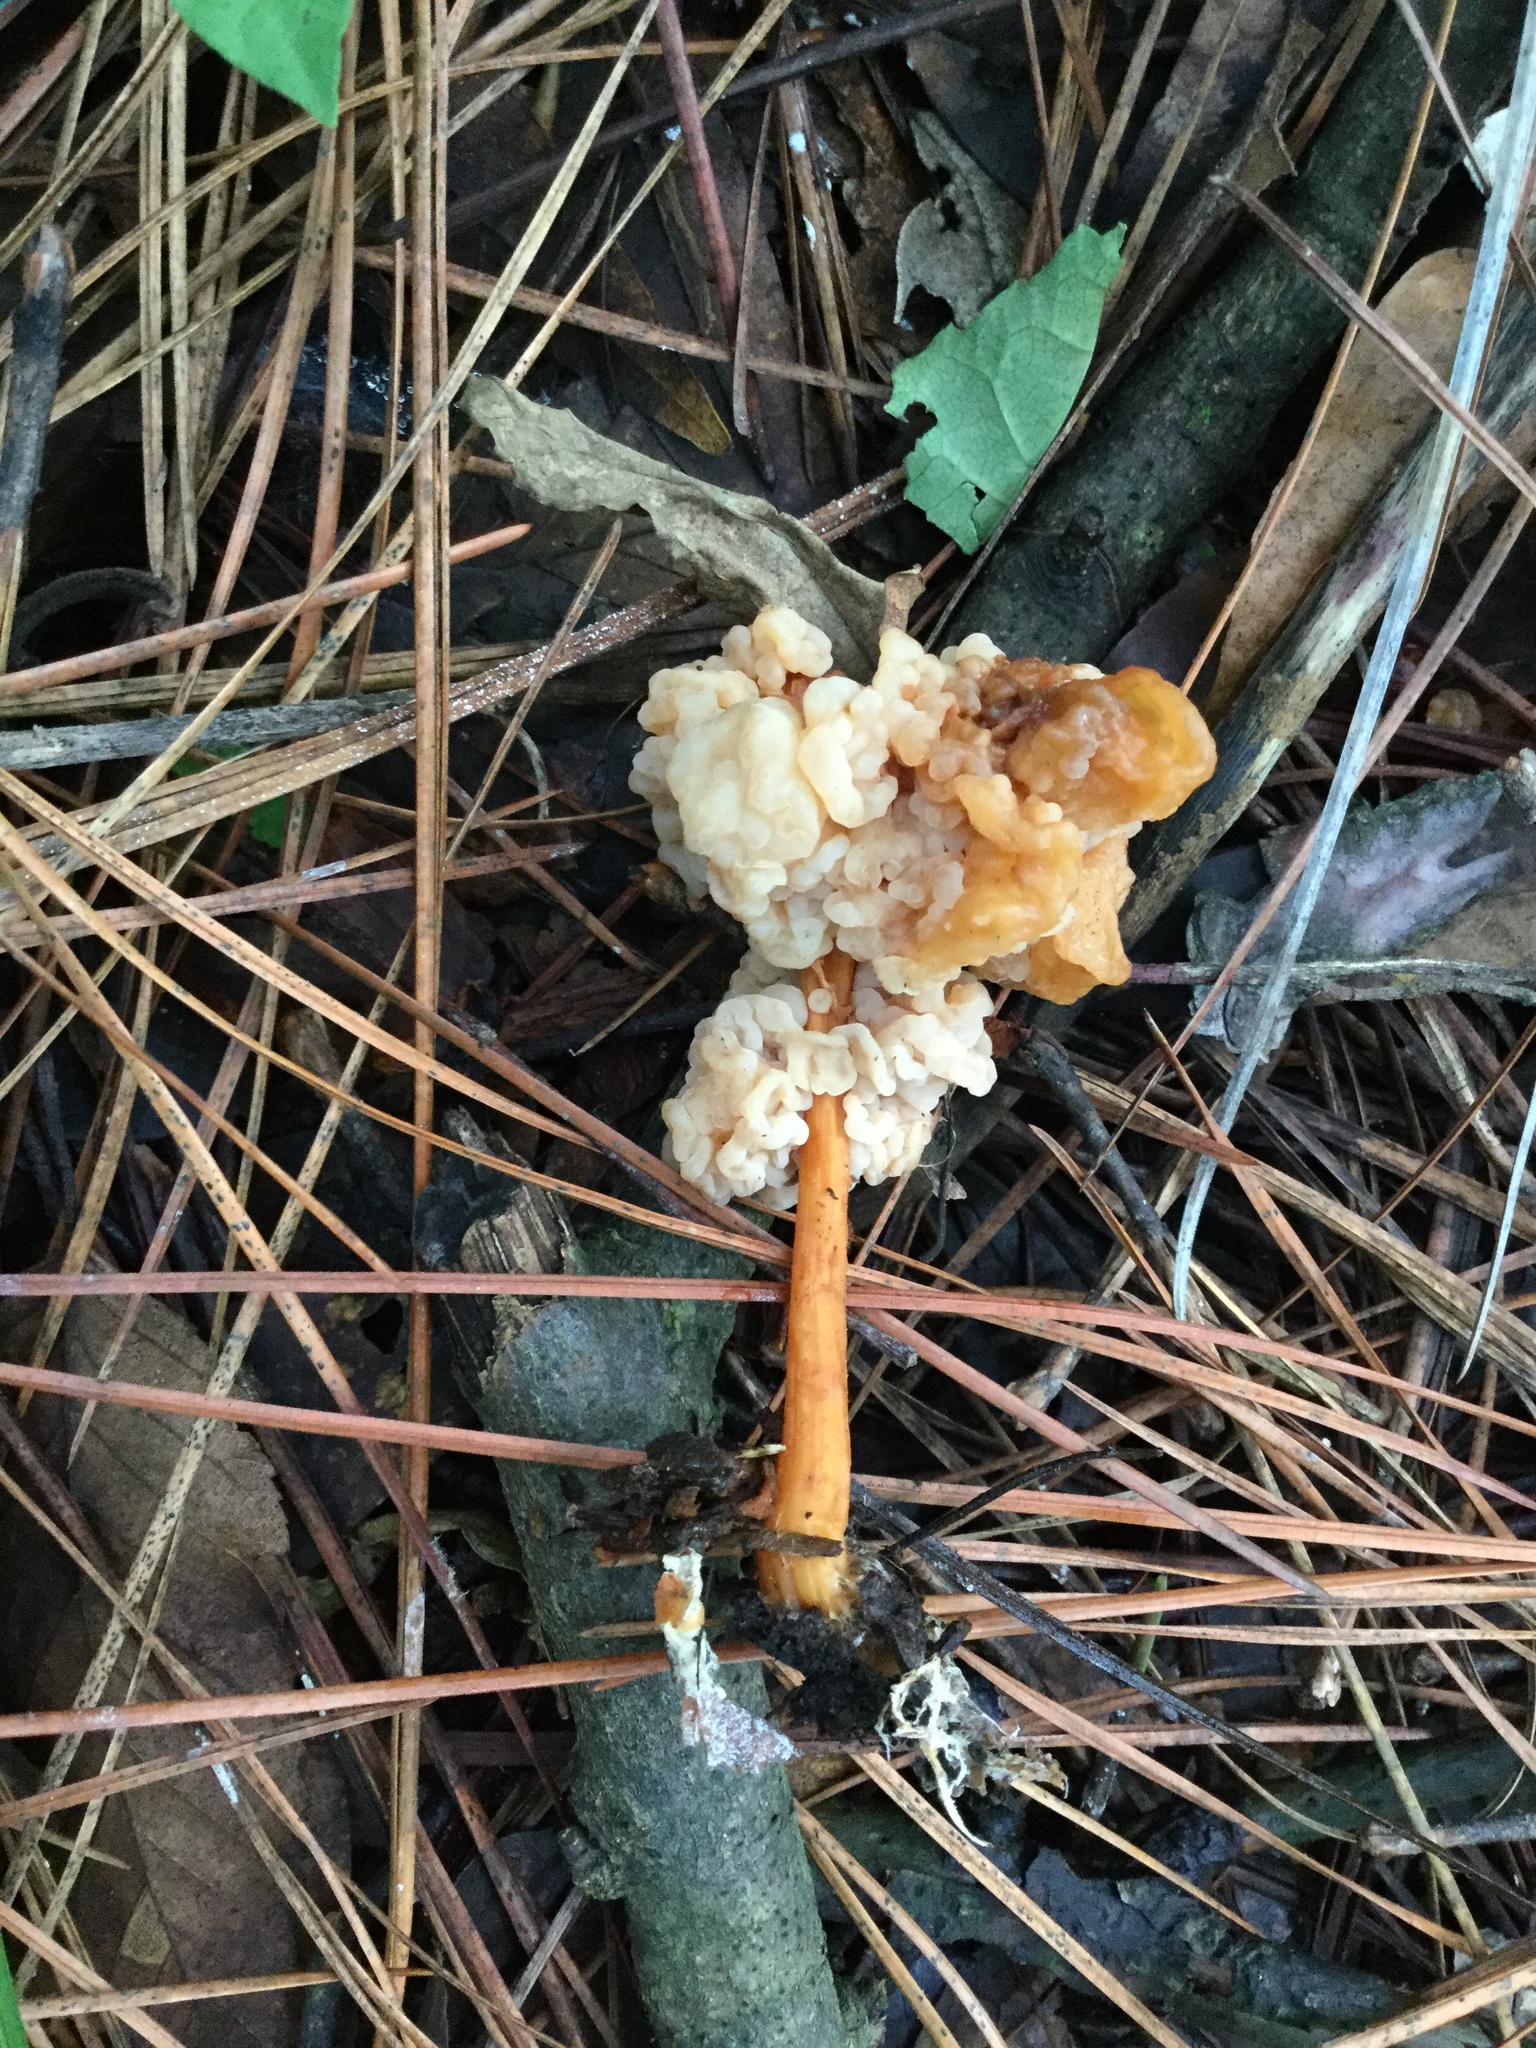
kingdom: Fungi
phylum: Basidiomycota
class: Tremellomycetes
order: Filobasidiales
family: Filobasidiaceae
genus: Syzygospora
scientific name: Syzygospora mycetophila
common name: Collybia clouds
